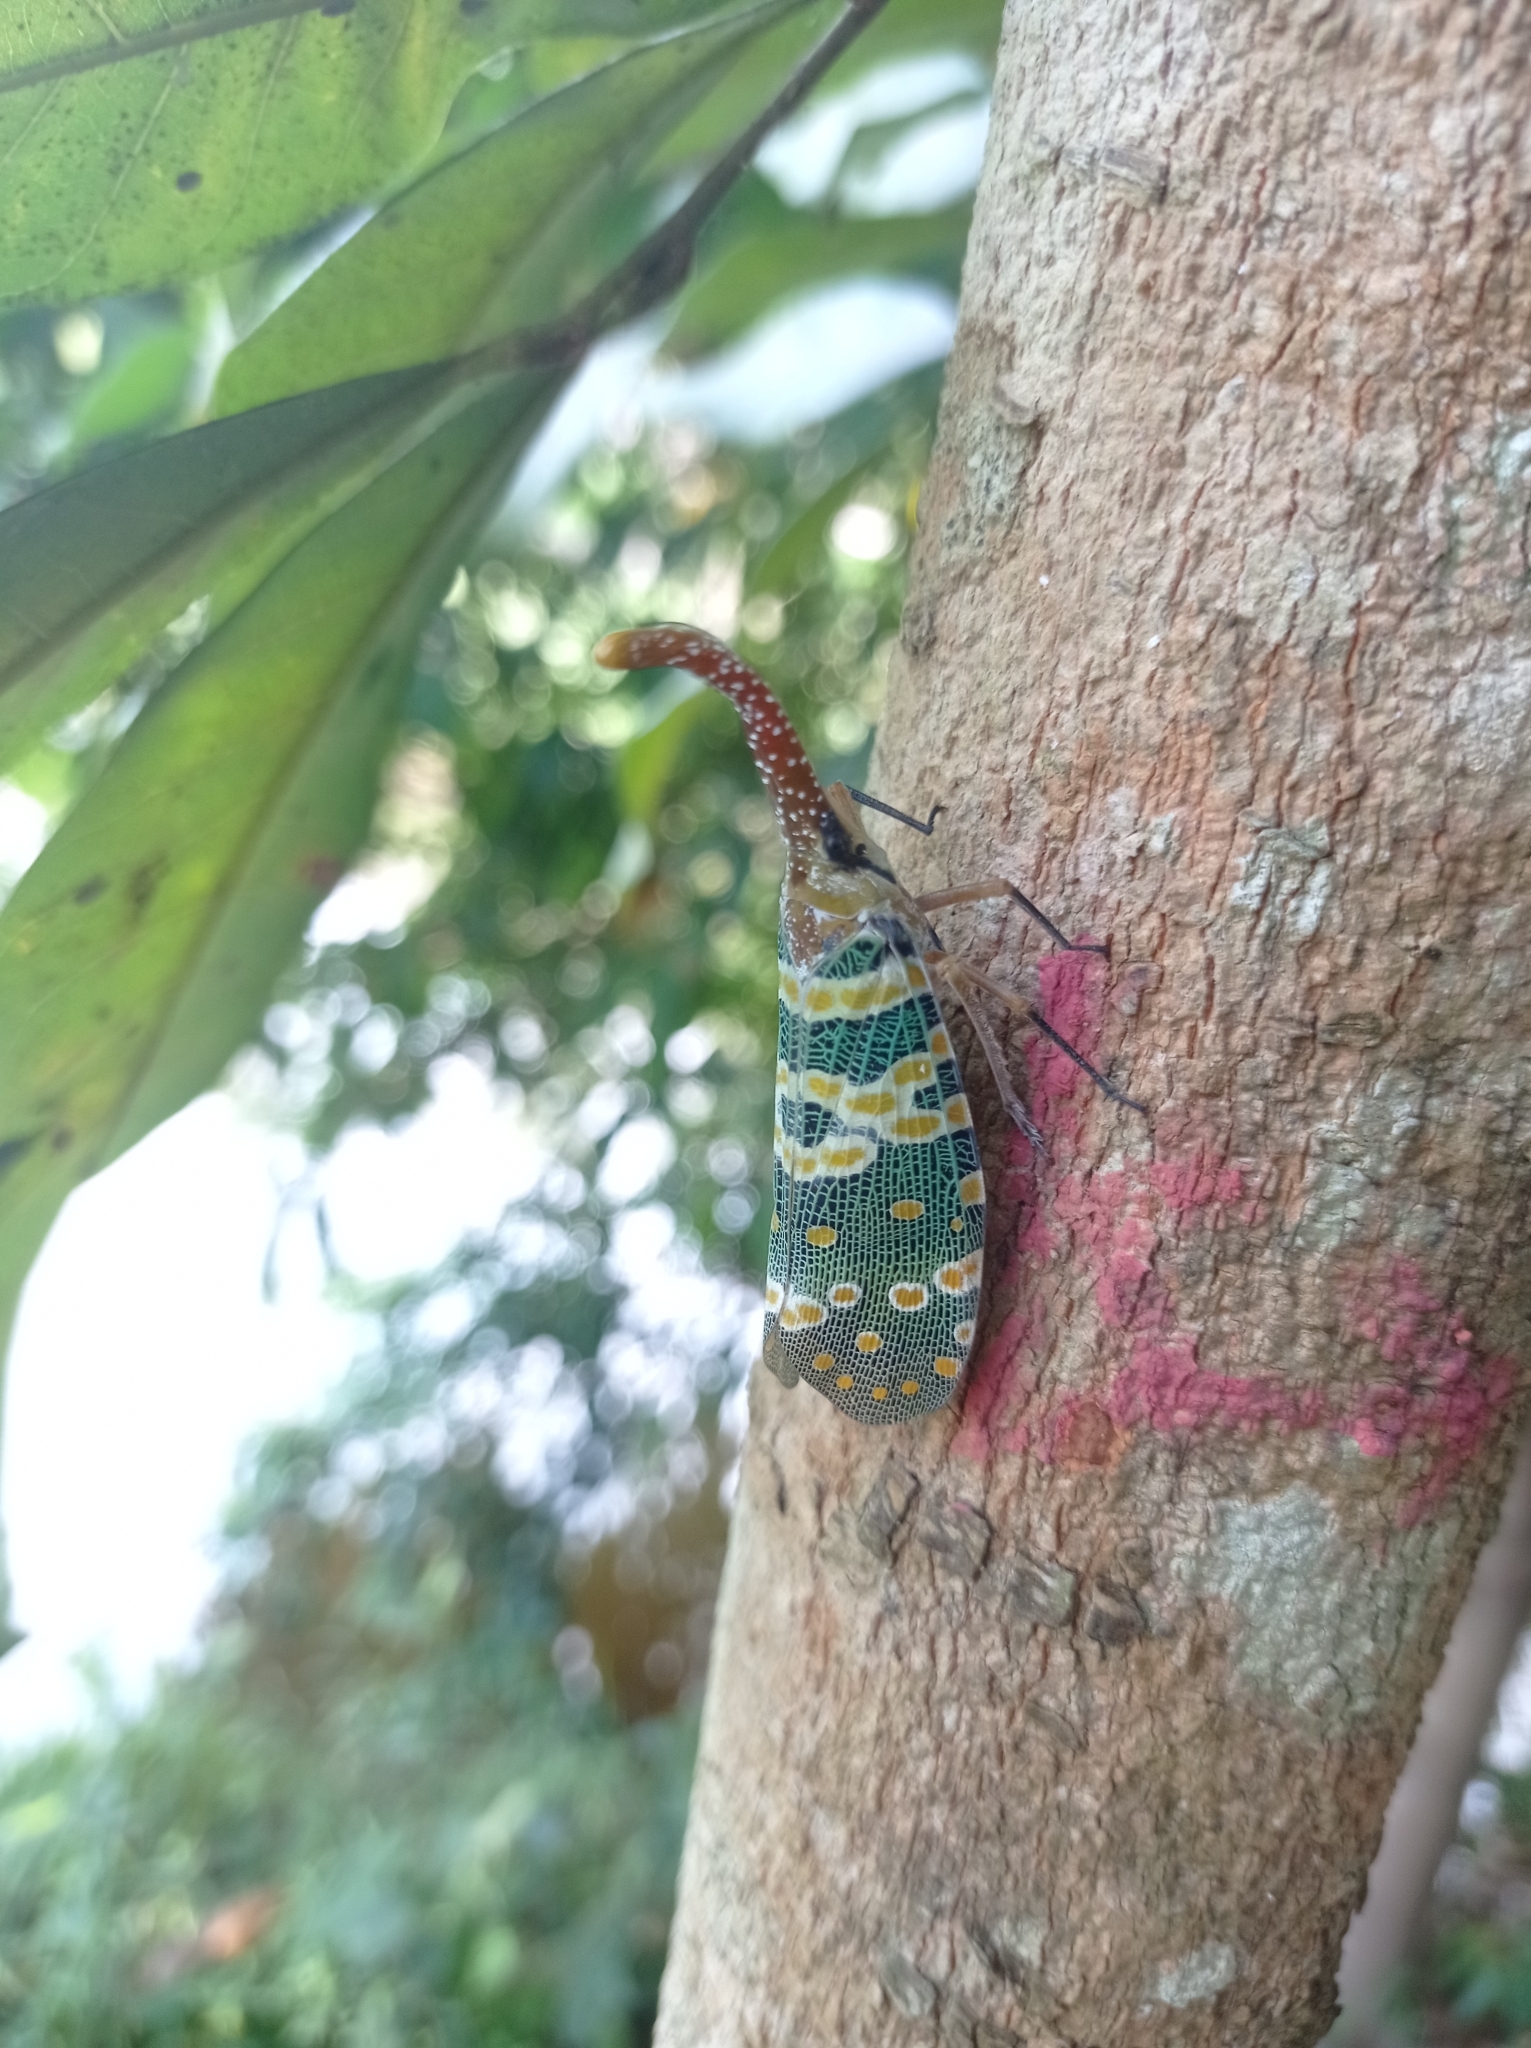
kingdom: Animalia
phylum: Arthropoda
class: Insecta
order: Hemiptera
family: Fulgoridae
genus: Pyrops
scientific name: Pyrops candelaria
